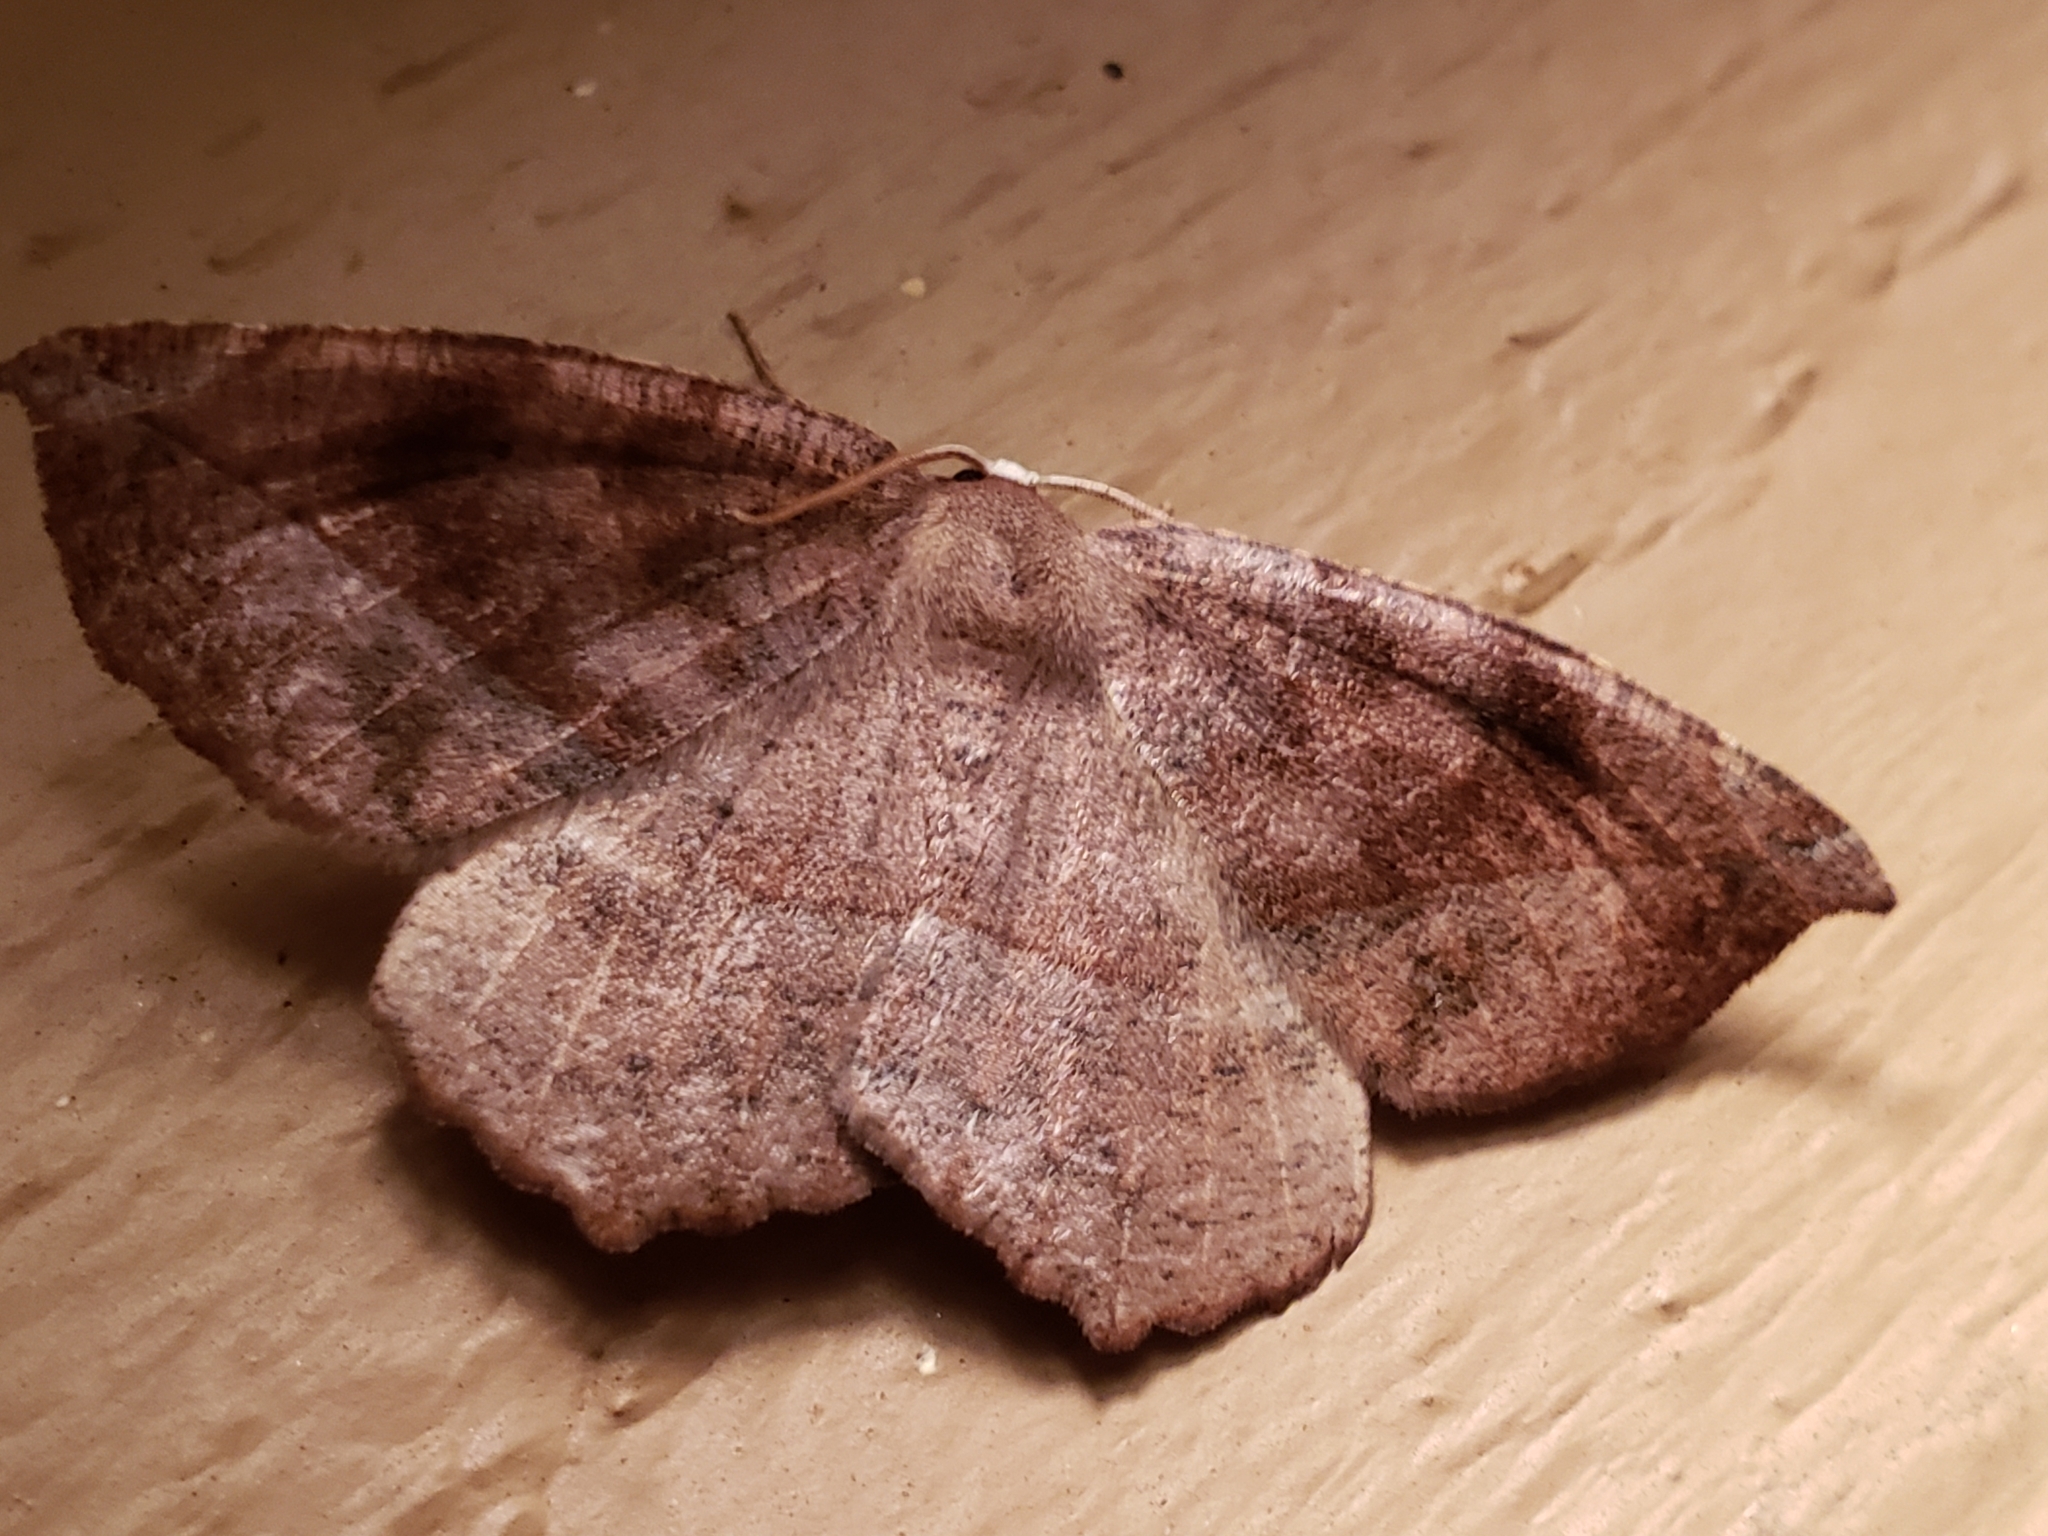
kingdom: Animalia
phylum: Arthropoda
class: Insecta
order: Lepidoptera
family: Geometridae
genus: Eutrapela
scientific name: Eutrapela clemataria
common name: Curved-toothed geometer
